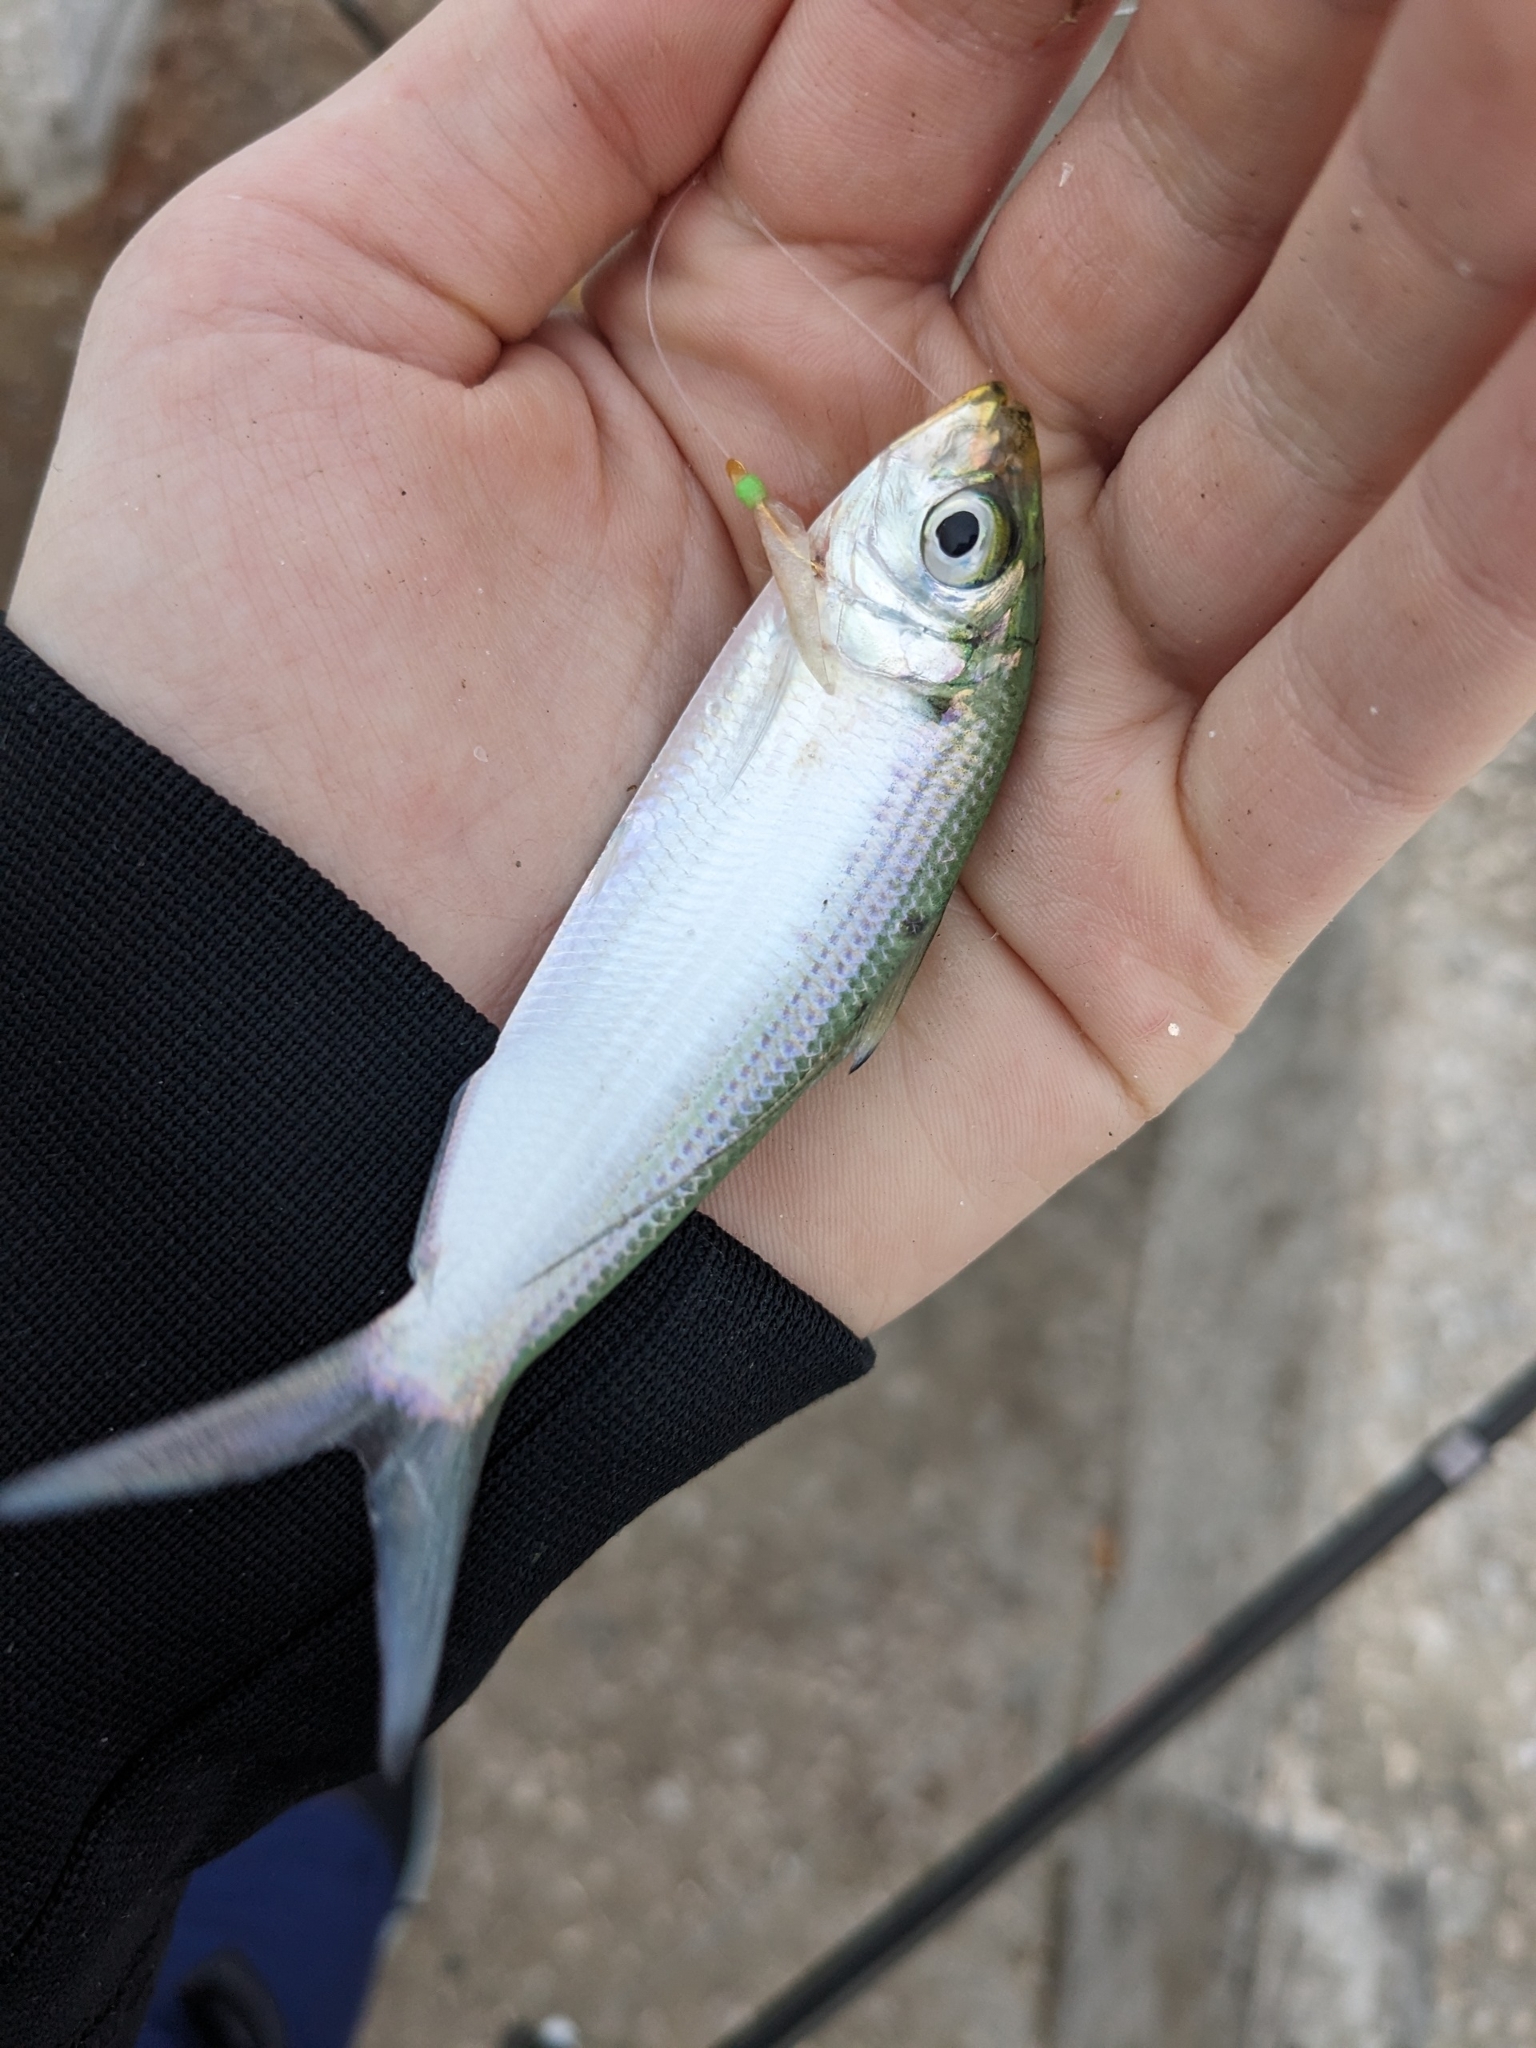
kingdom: Animalia
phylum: Chordata
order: Clupeiformes
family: Clupeidae
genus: Opisthonema
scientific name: Opisthonema oglinum
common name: Thread herring
